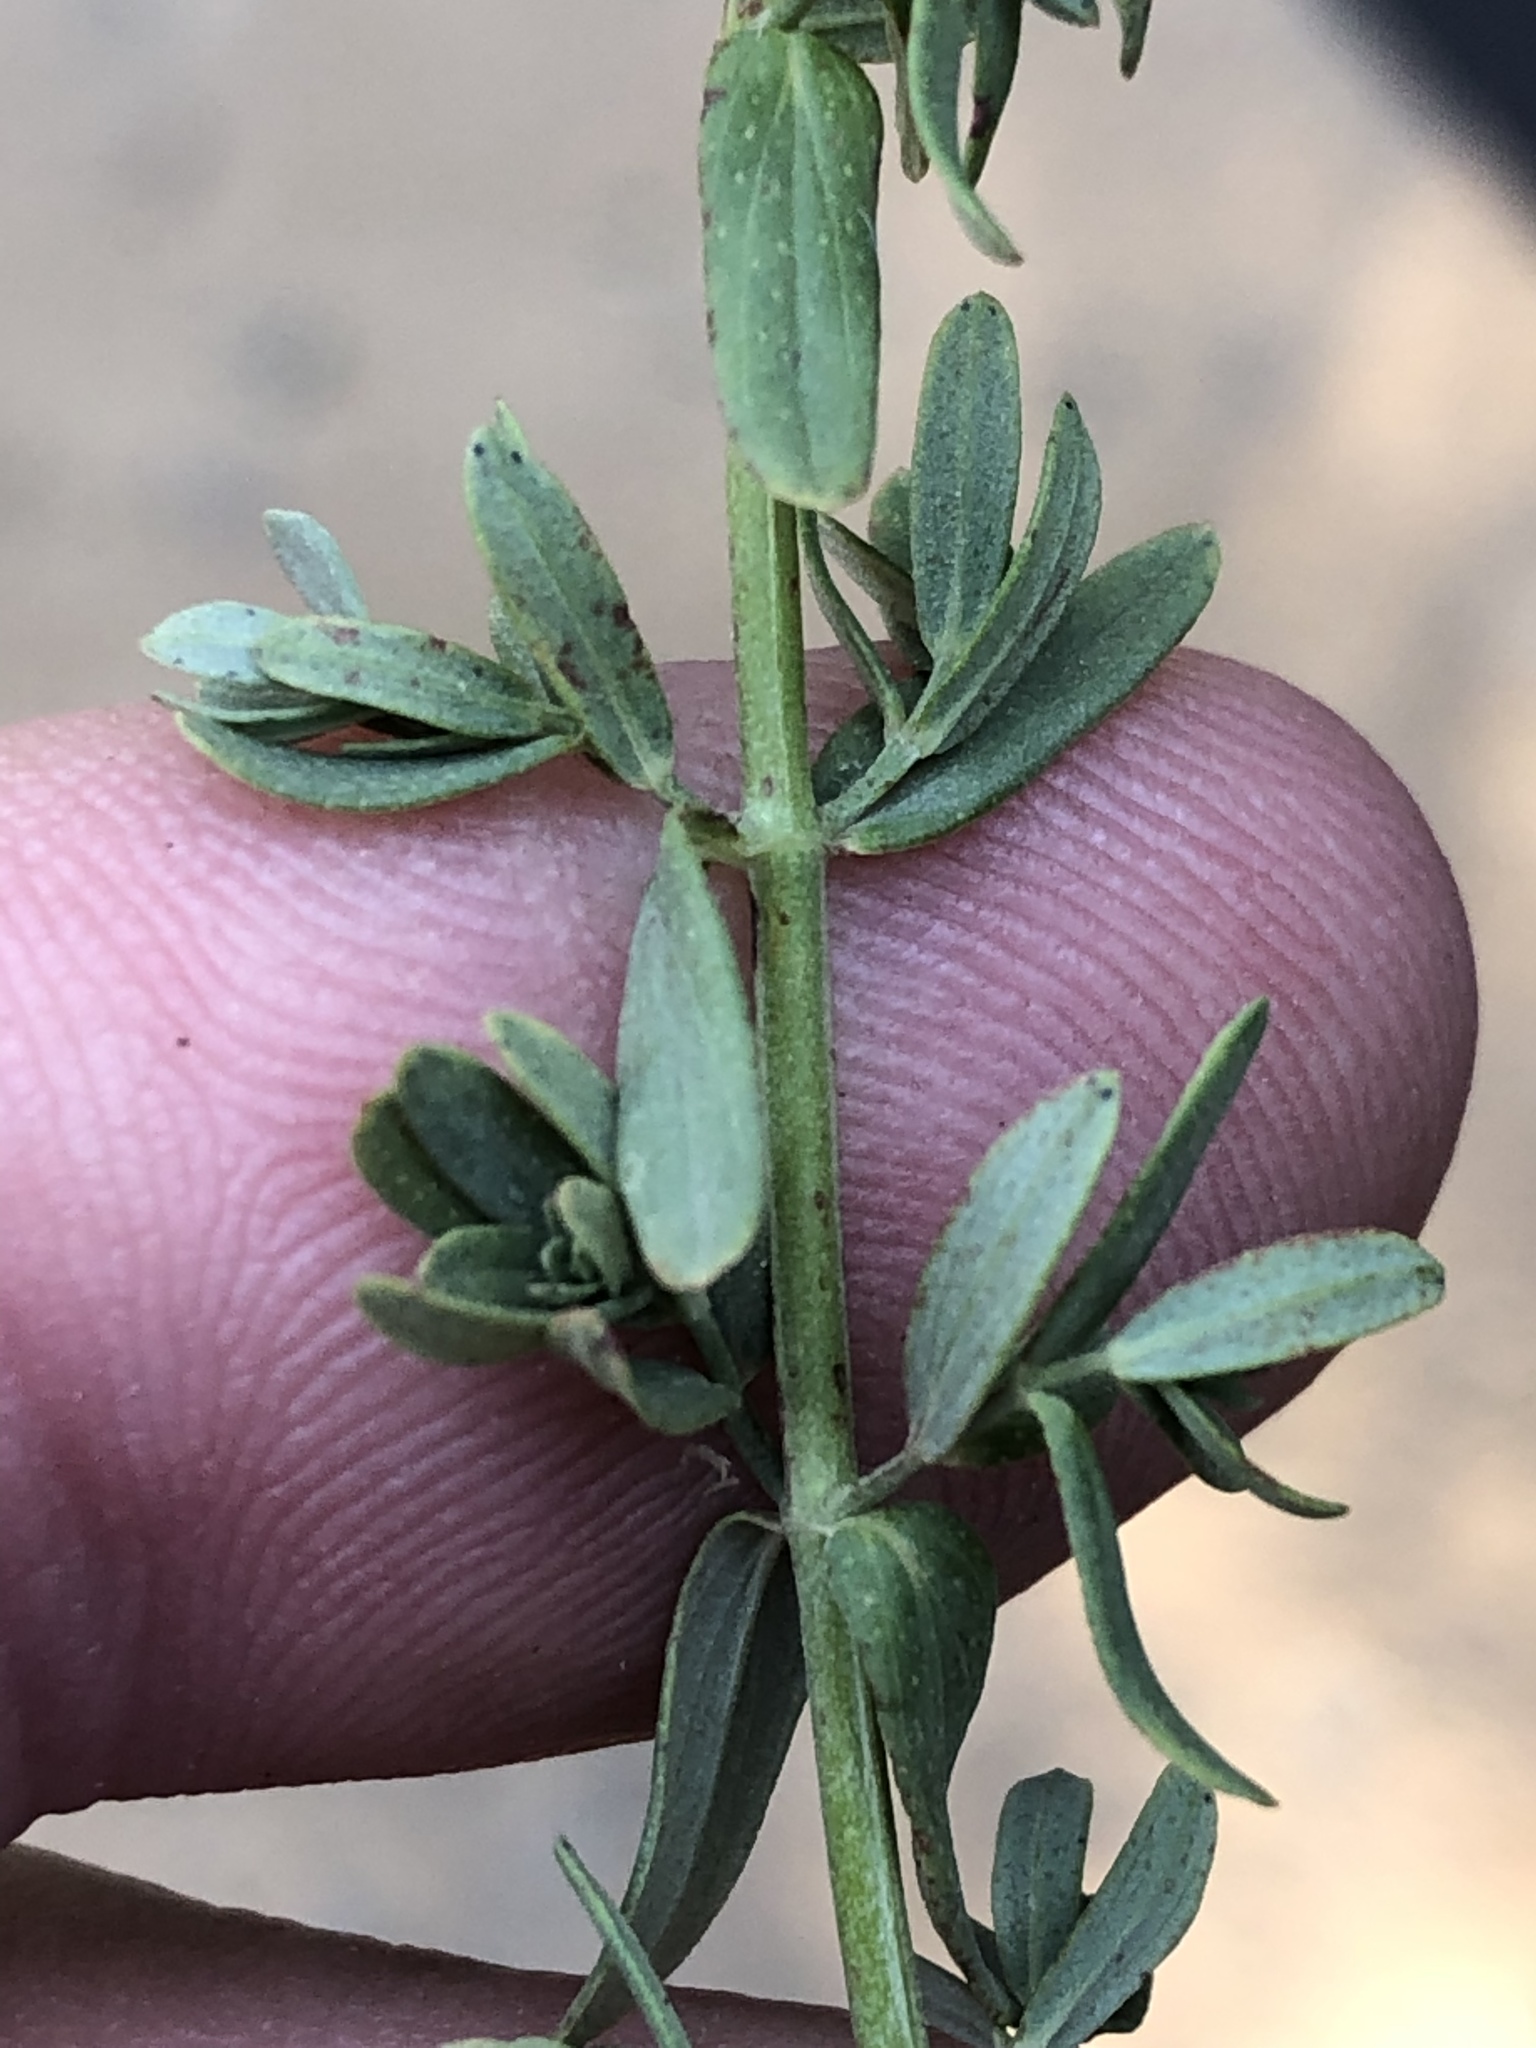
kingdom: Plantae
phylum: Tracheophyta
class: Magnoliopsida
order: Malpighiales
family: Hypericaceae
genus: Hypericum
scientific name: Hypericum perforatum
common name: Common st. johnswort
